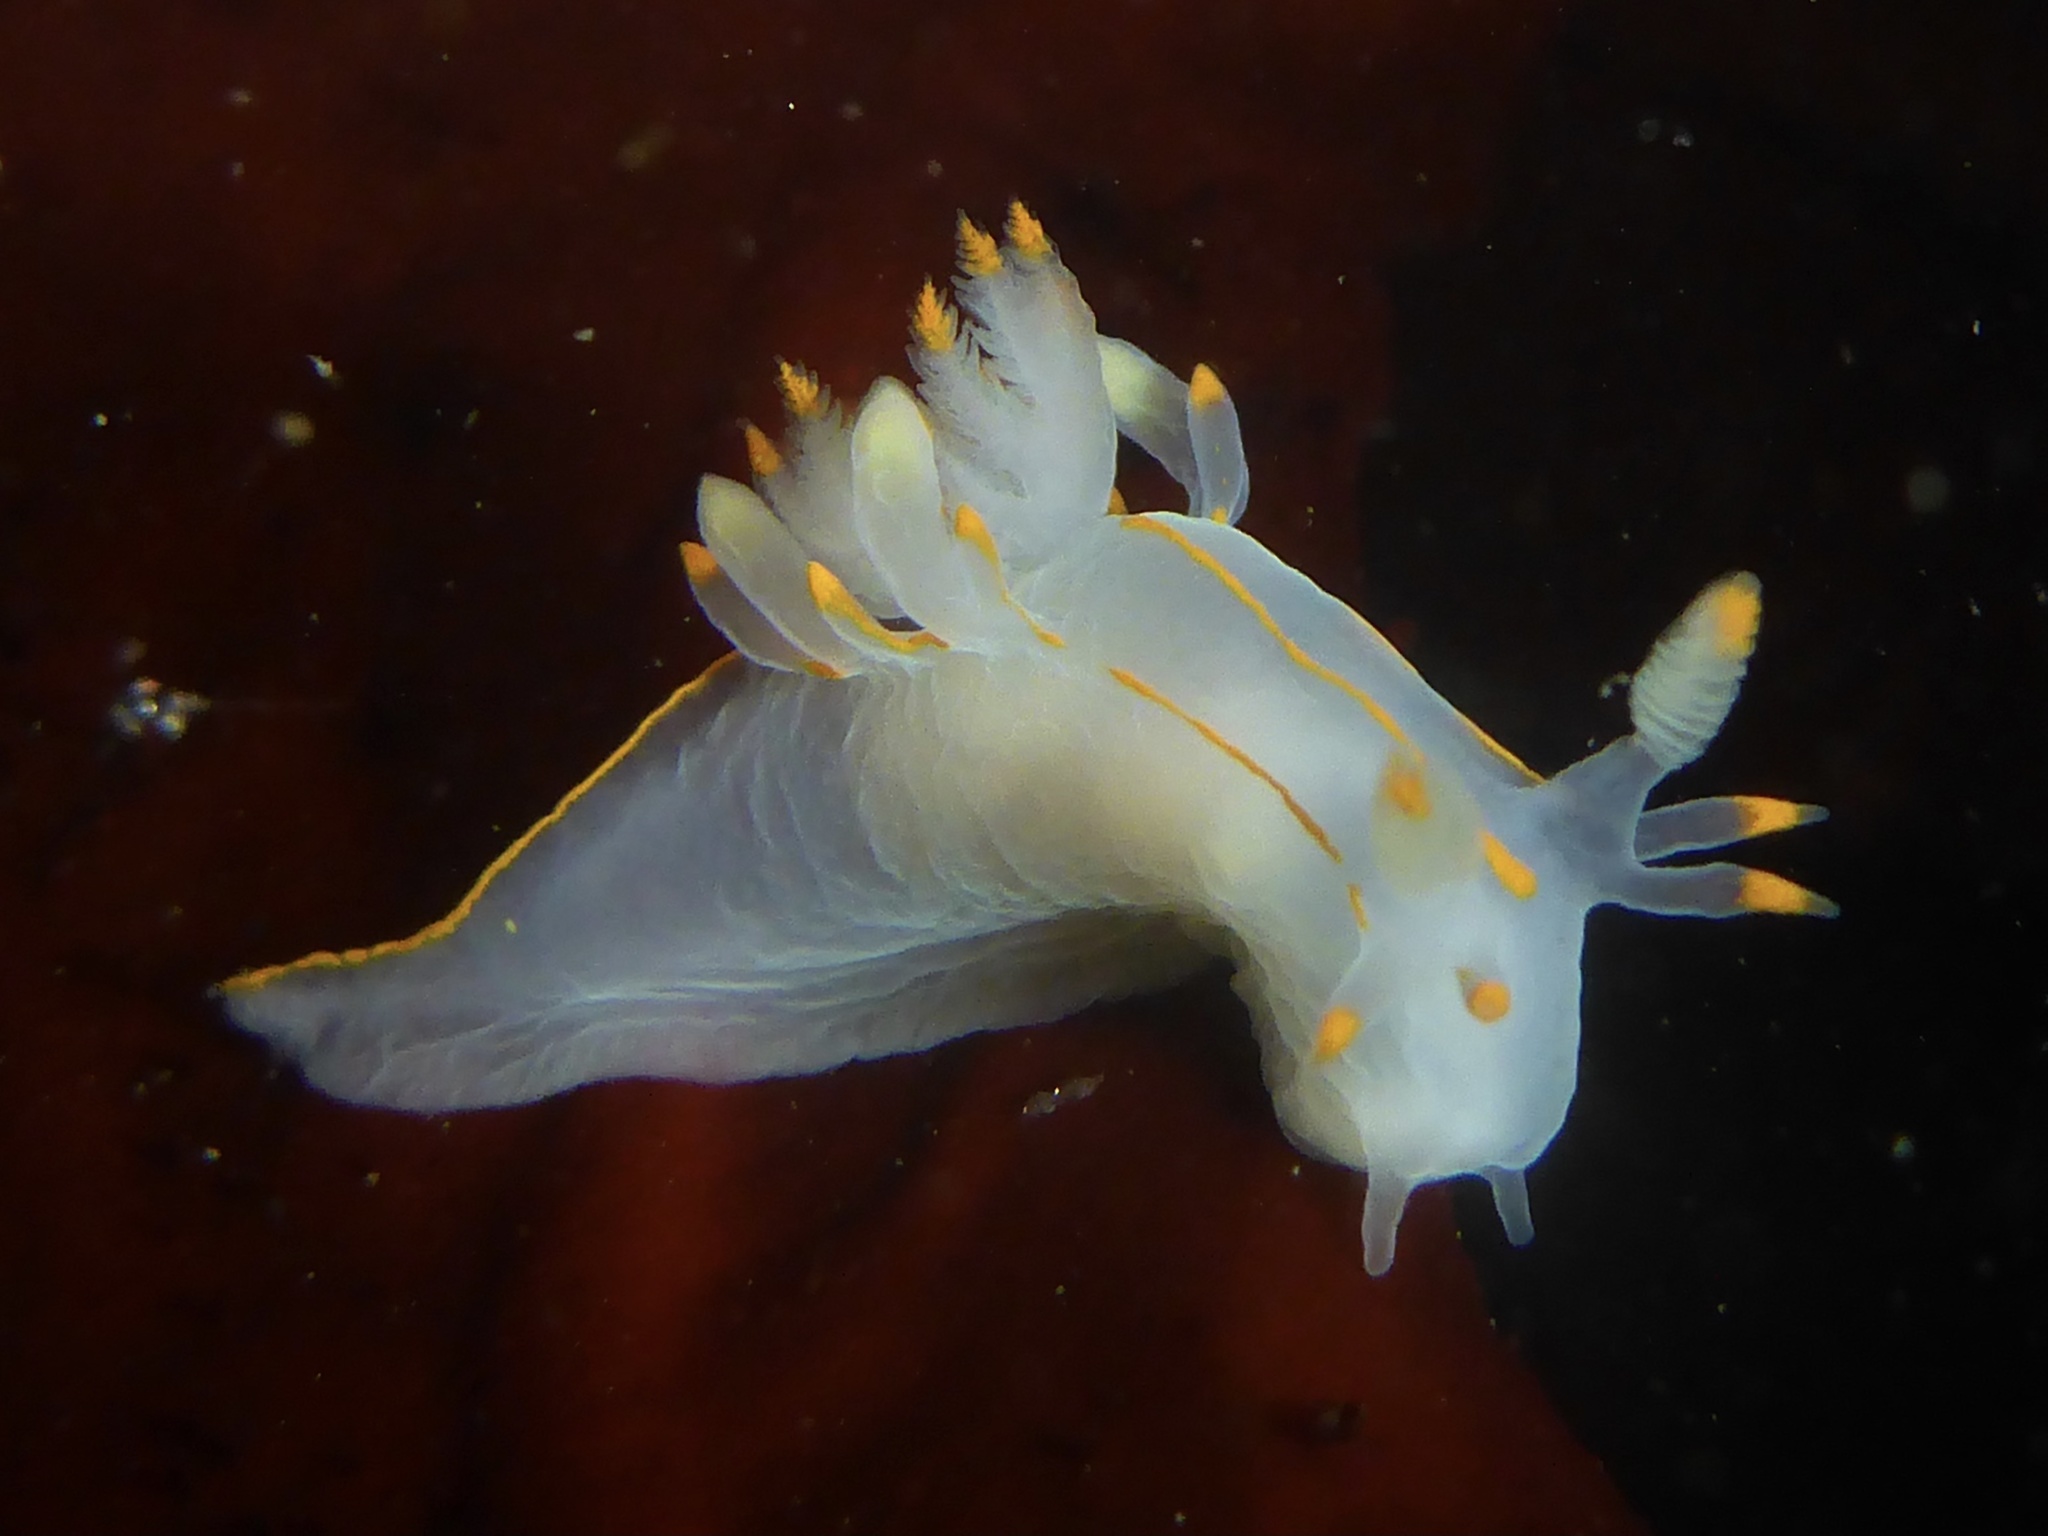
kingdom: Animalia
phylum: Mollusca
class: Gastropoda
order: Nudibranchia
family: Goniodorididae
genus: Ancula
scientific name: Ancula pacifica
